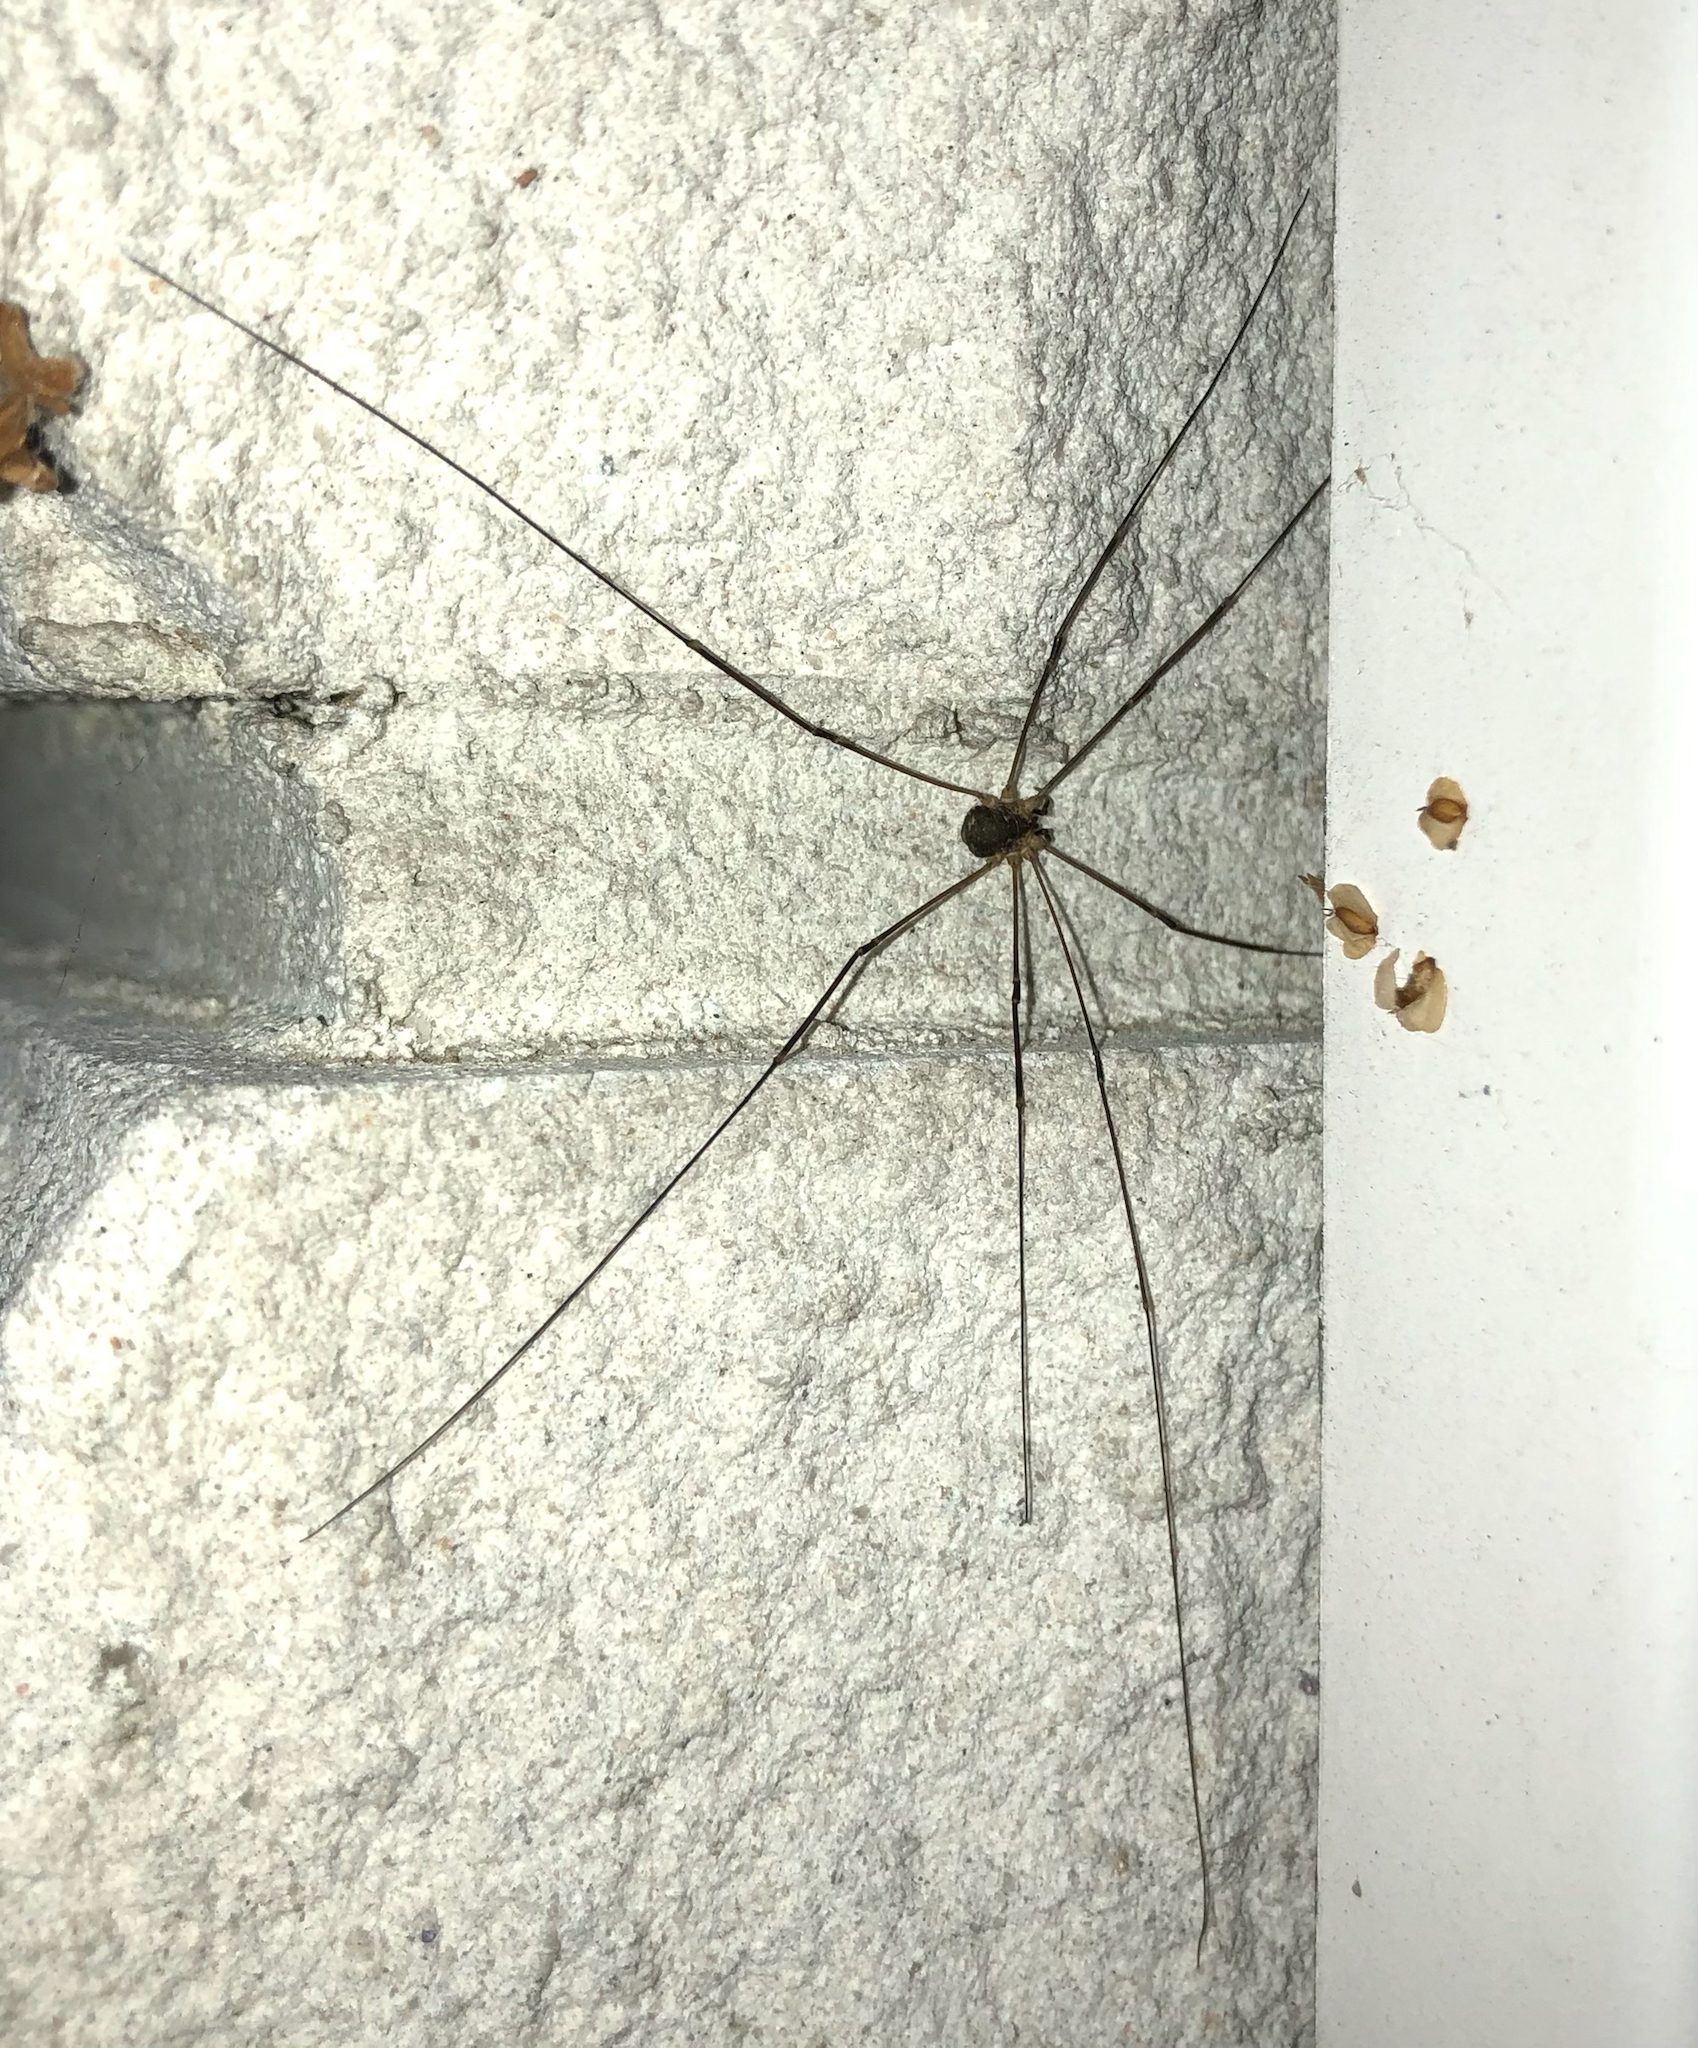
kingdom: Animalia
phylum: Arthropoda
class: Arachnida
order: Opiliones
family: Sclerosomatidae
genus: Leiobunum
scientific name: Leiobunum gracile
